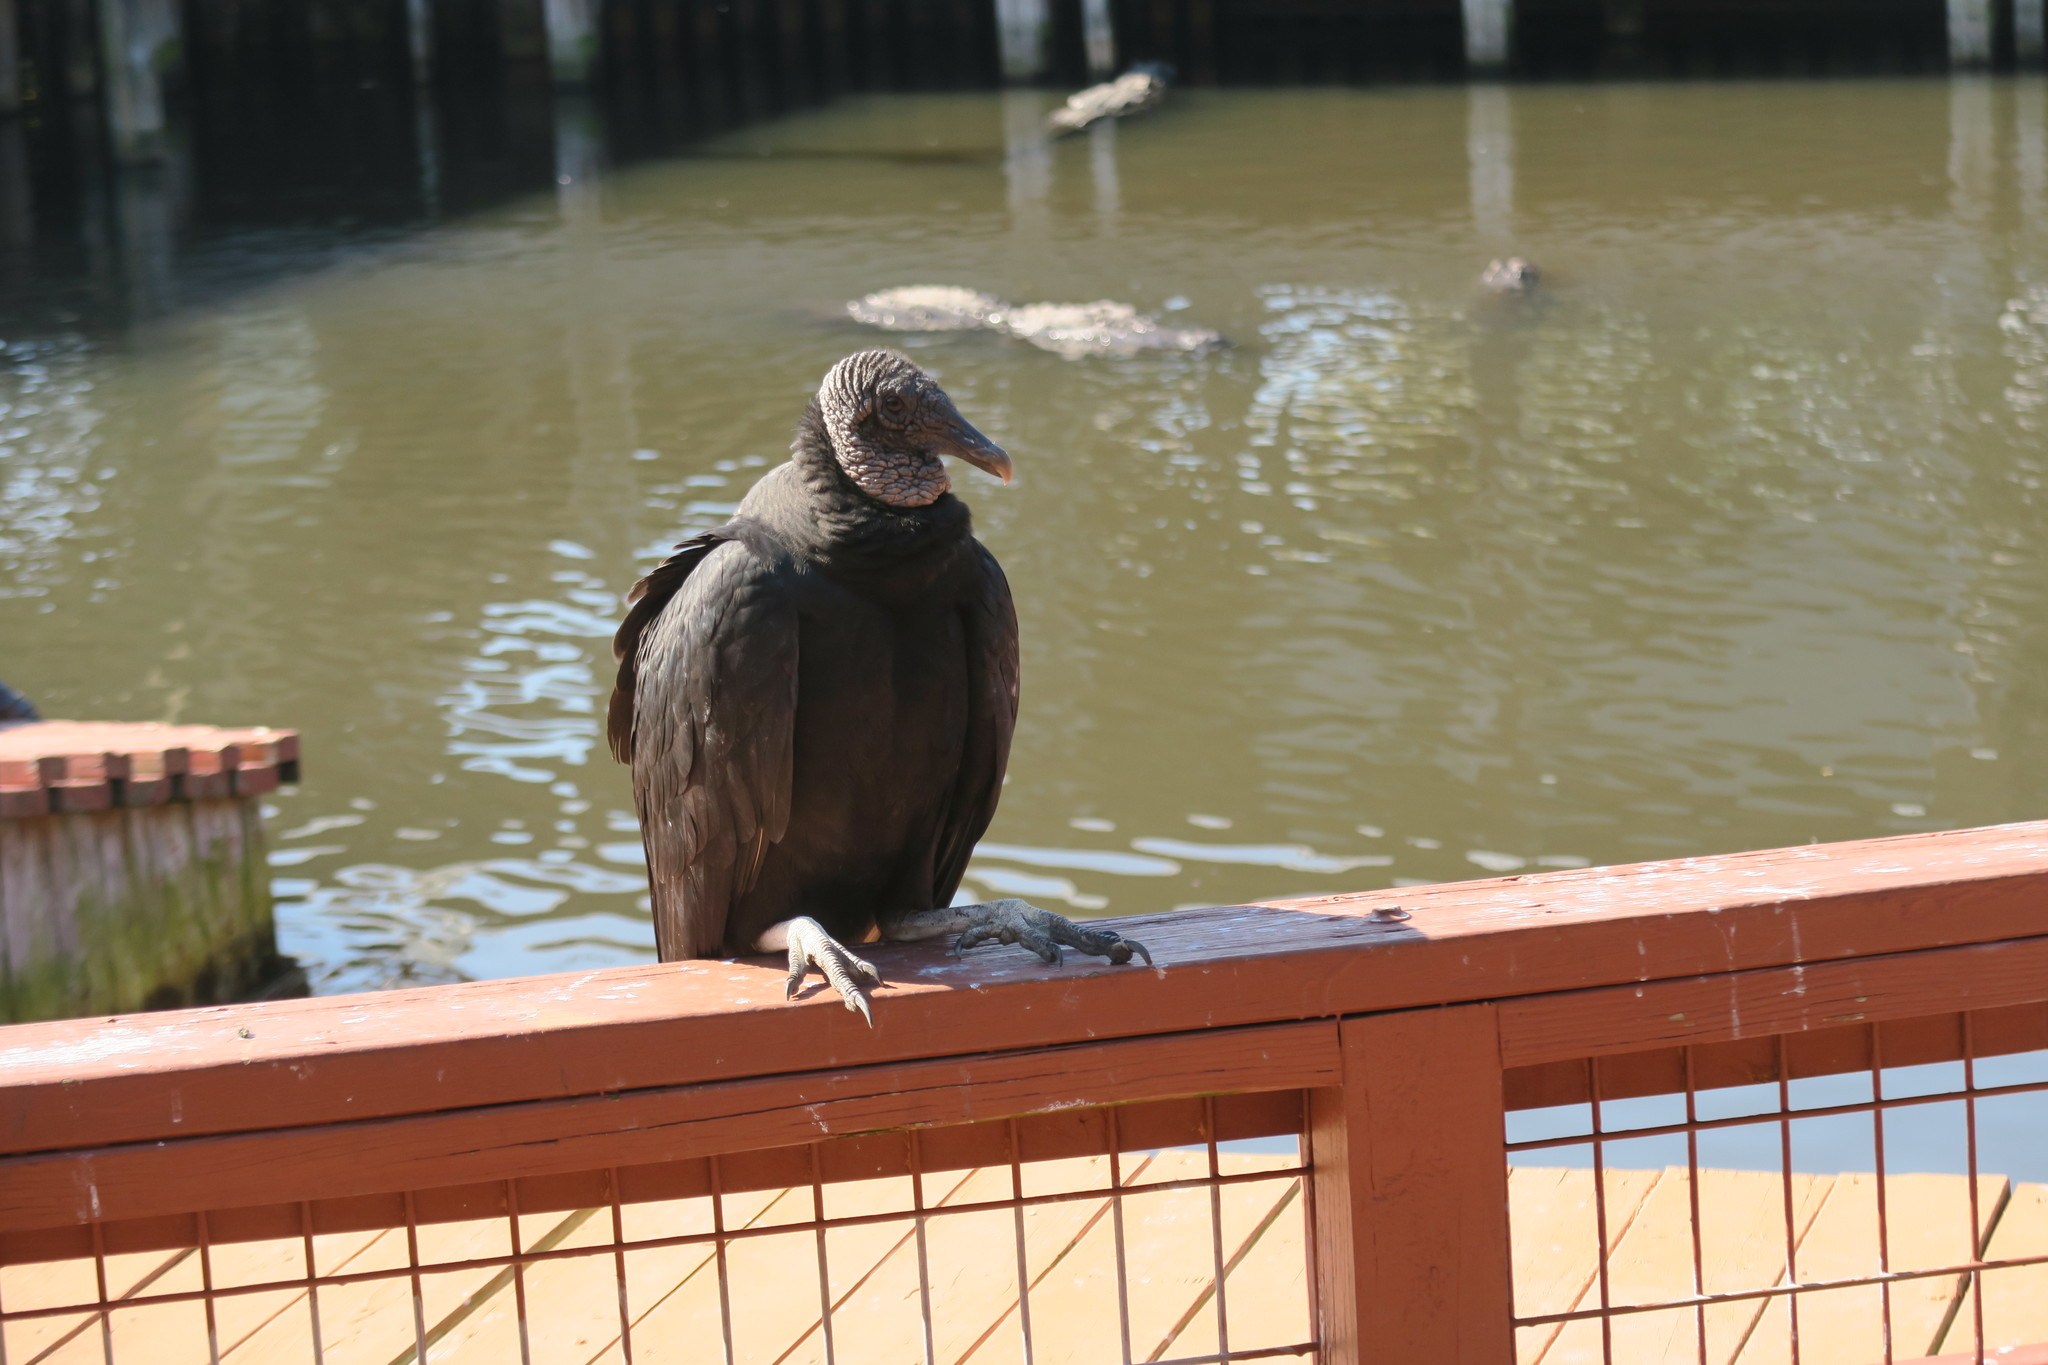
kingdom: Animalia
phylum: Chordata
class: Aves
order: Accipitriformes
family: Cathartidae
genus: Coragyps
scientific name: Coragyps atratus
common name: Black vulture
